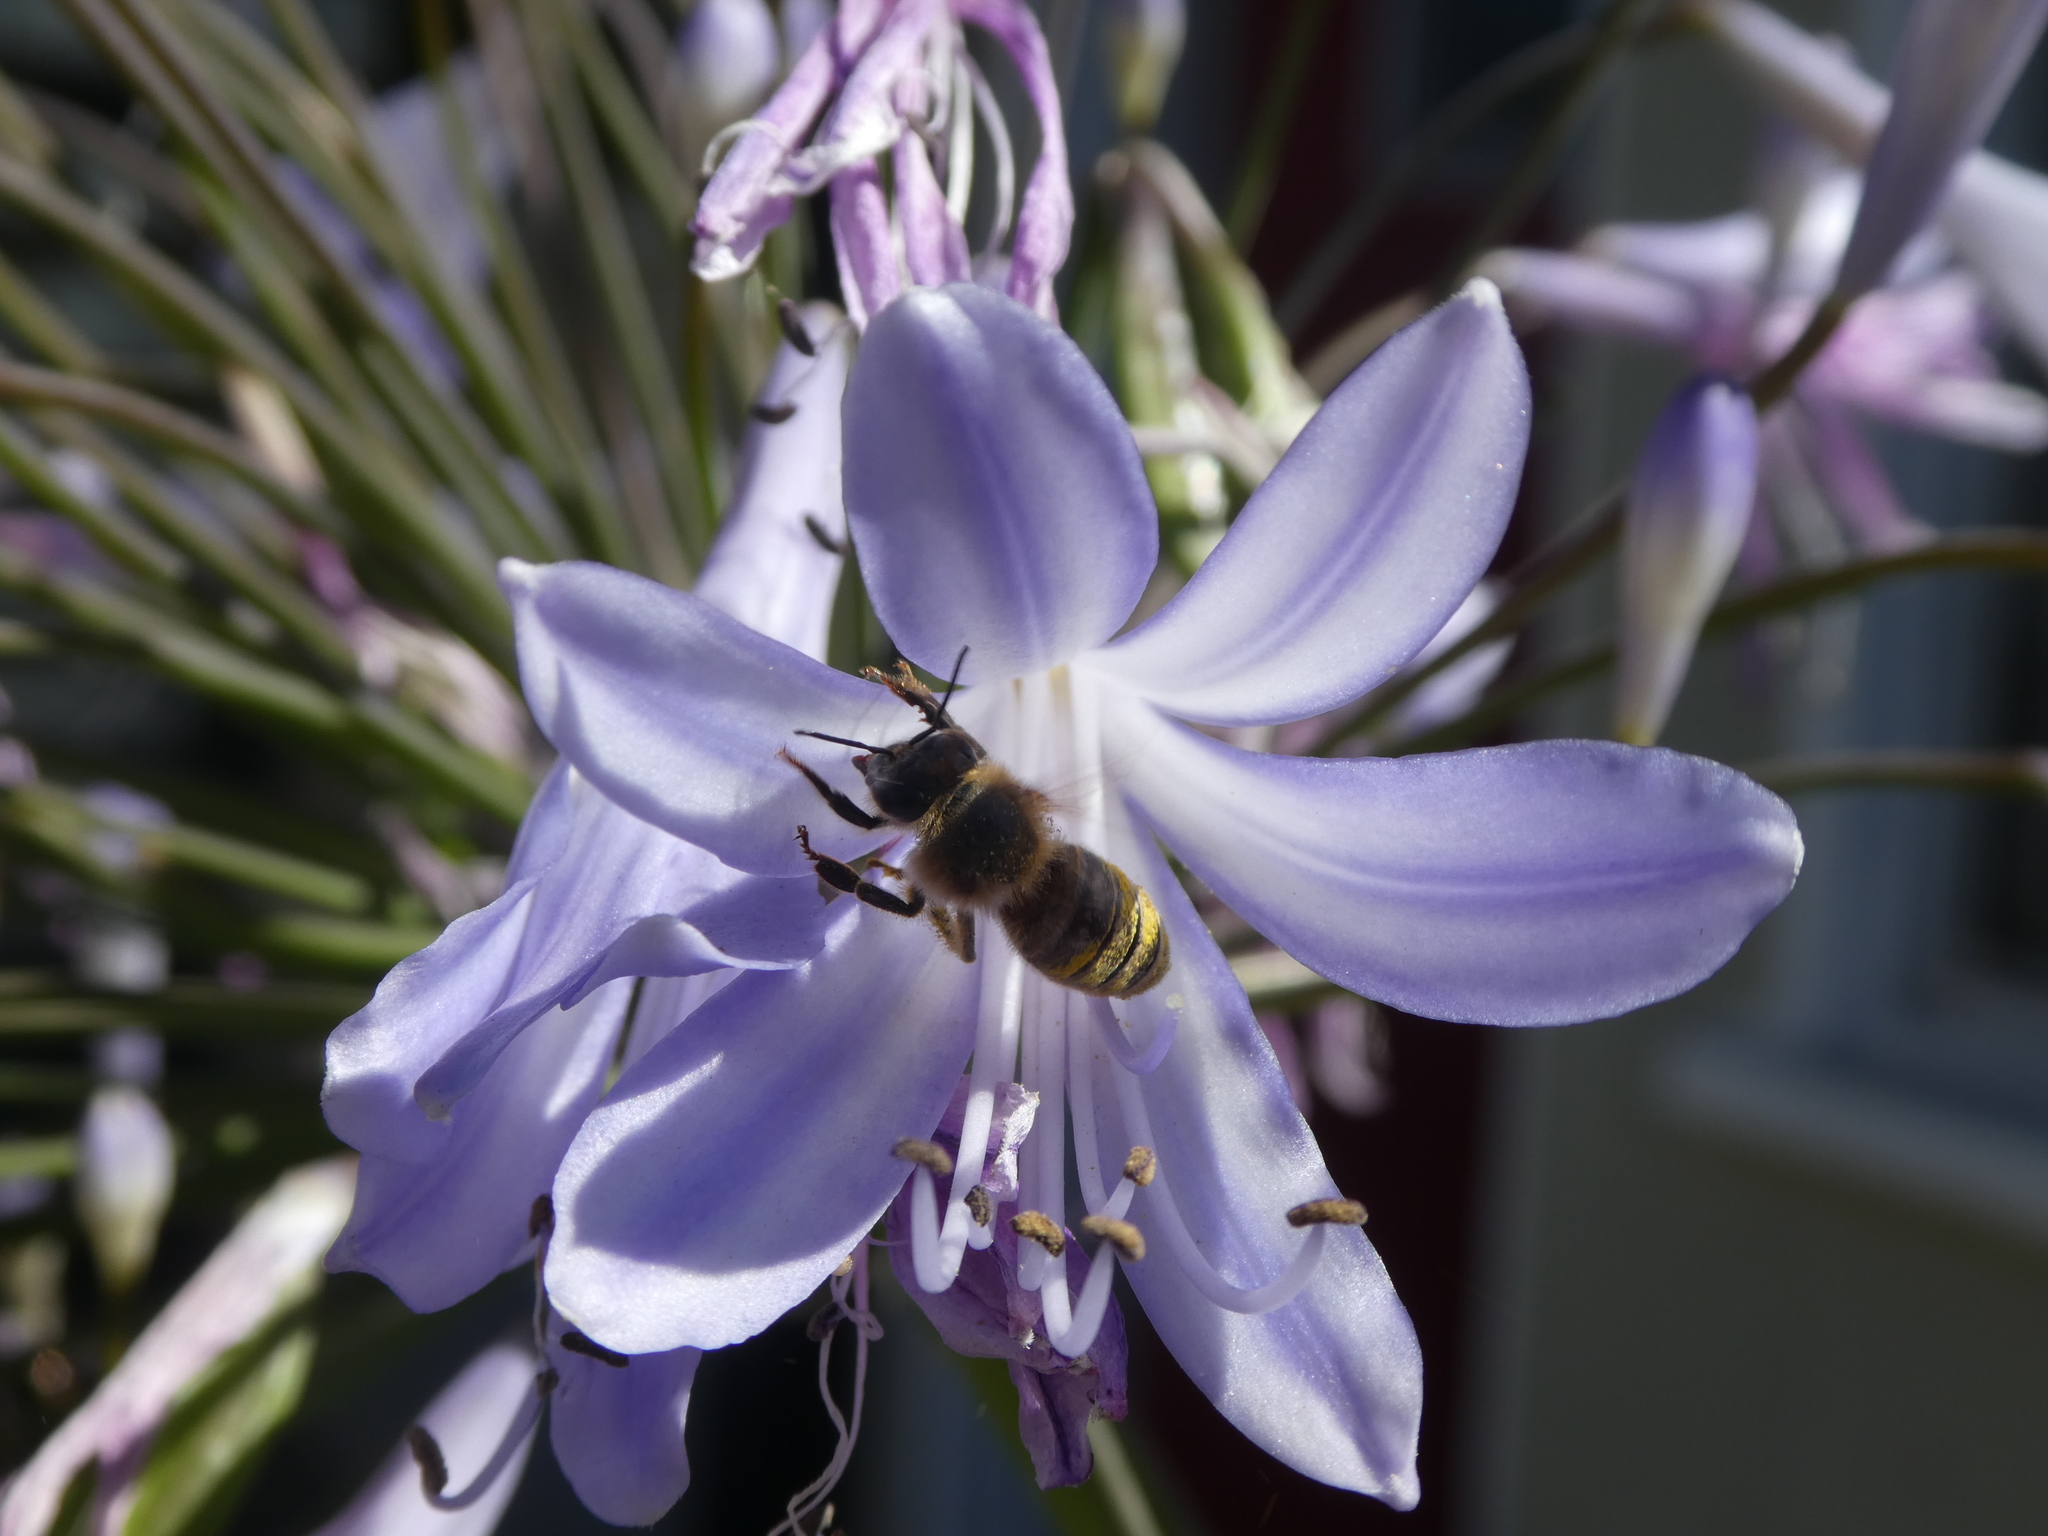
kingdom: Animalia
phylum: Arthropoda
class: Insecta
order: Hymenoptera
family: Apidae
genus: Apis
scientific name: Apis mellifera
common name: Honey bee
